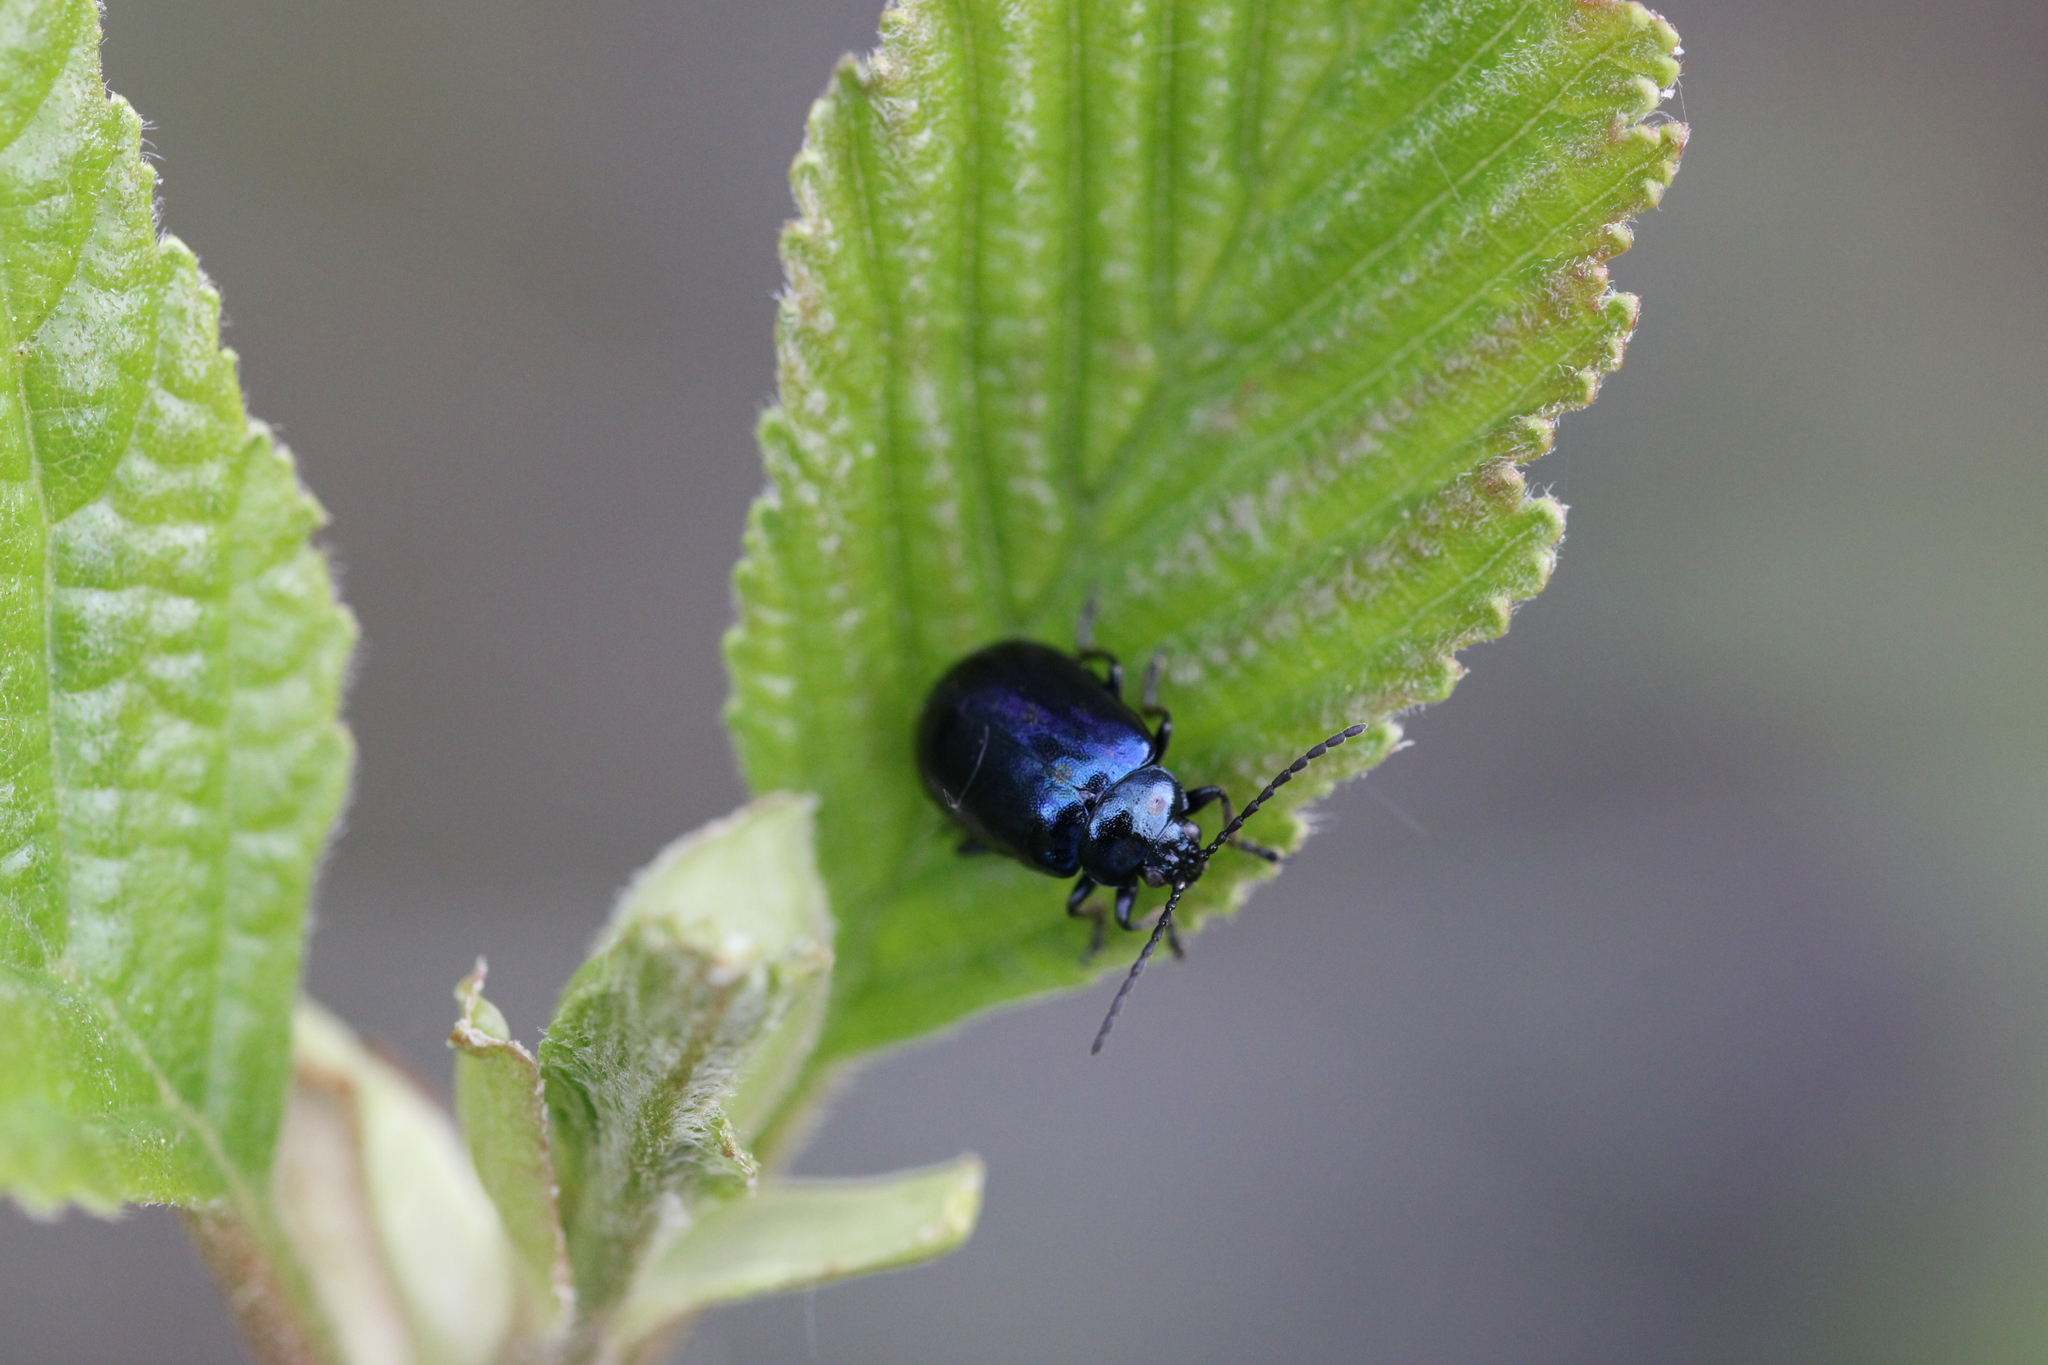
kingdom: Animalia
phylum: Arthropoda
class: Insecta
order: Coleoptera
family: Chrysomelidae
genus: Agelastica
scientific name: Agelastica alni
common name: Alder leaf beetle
